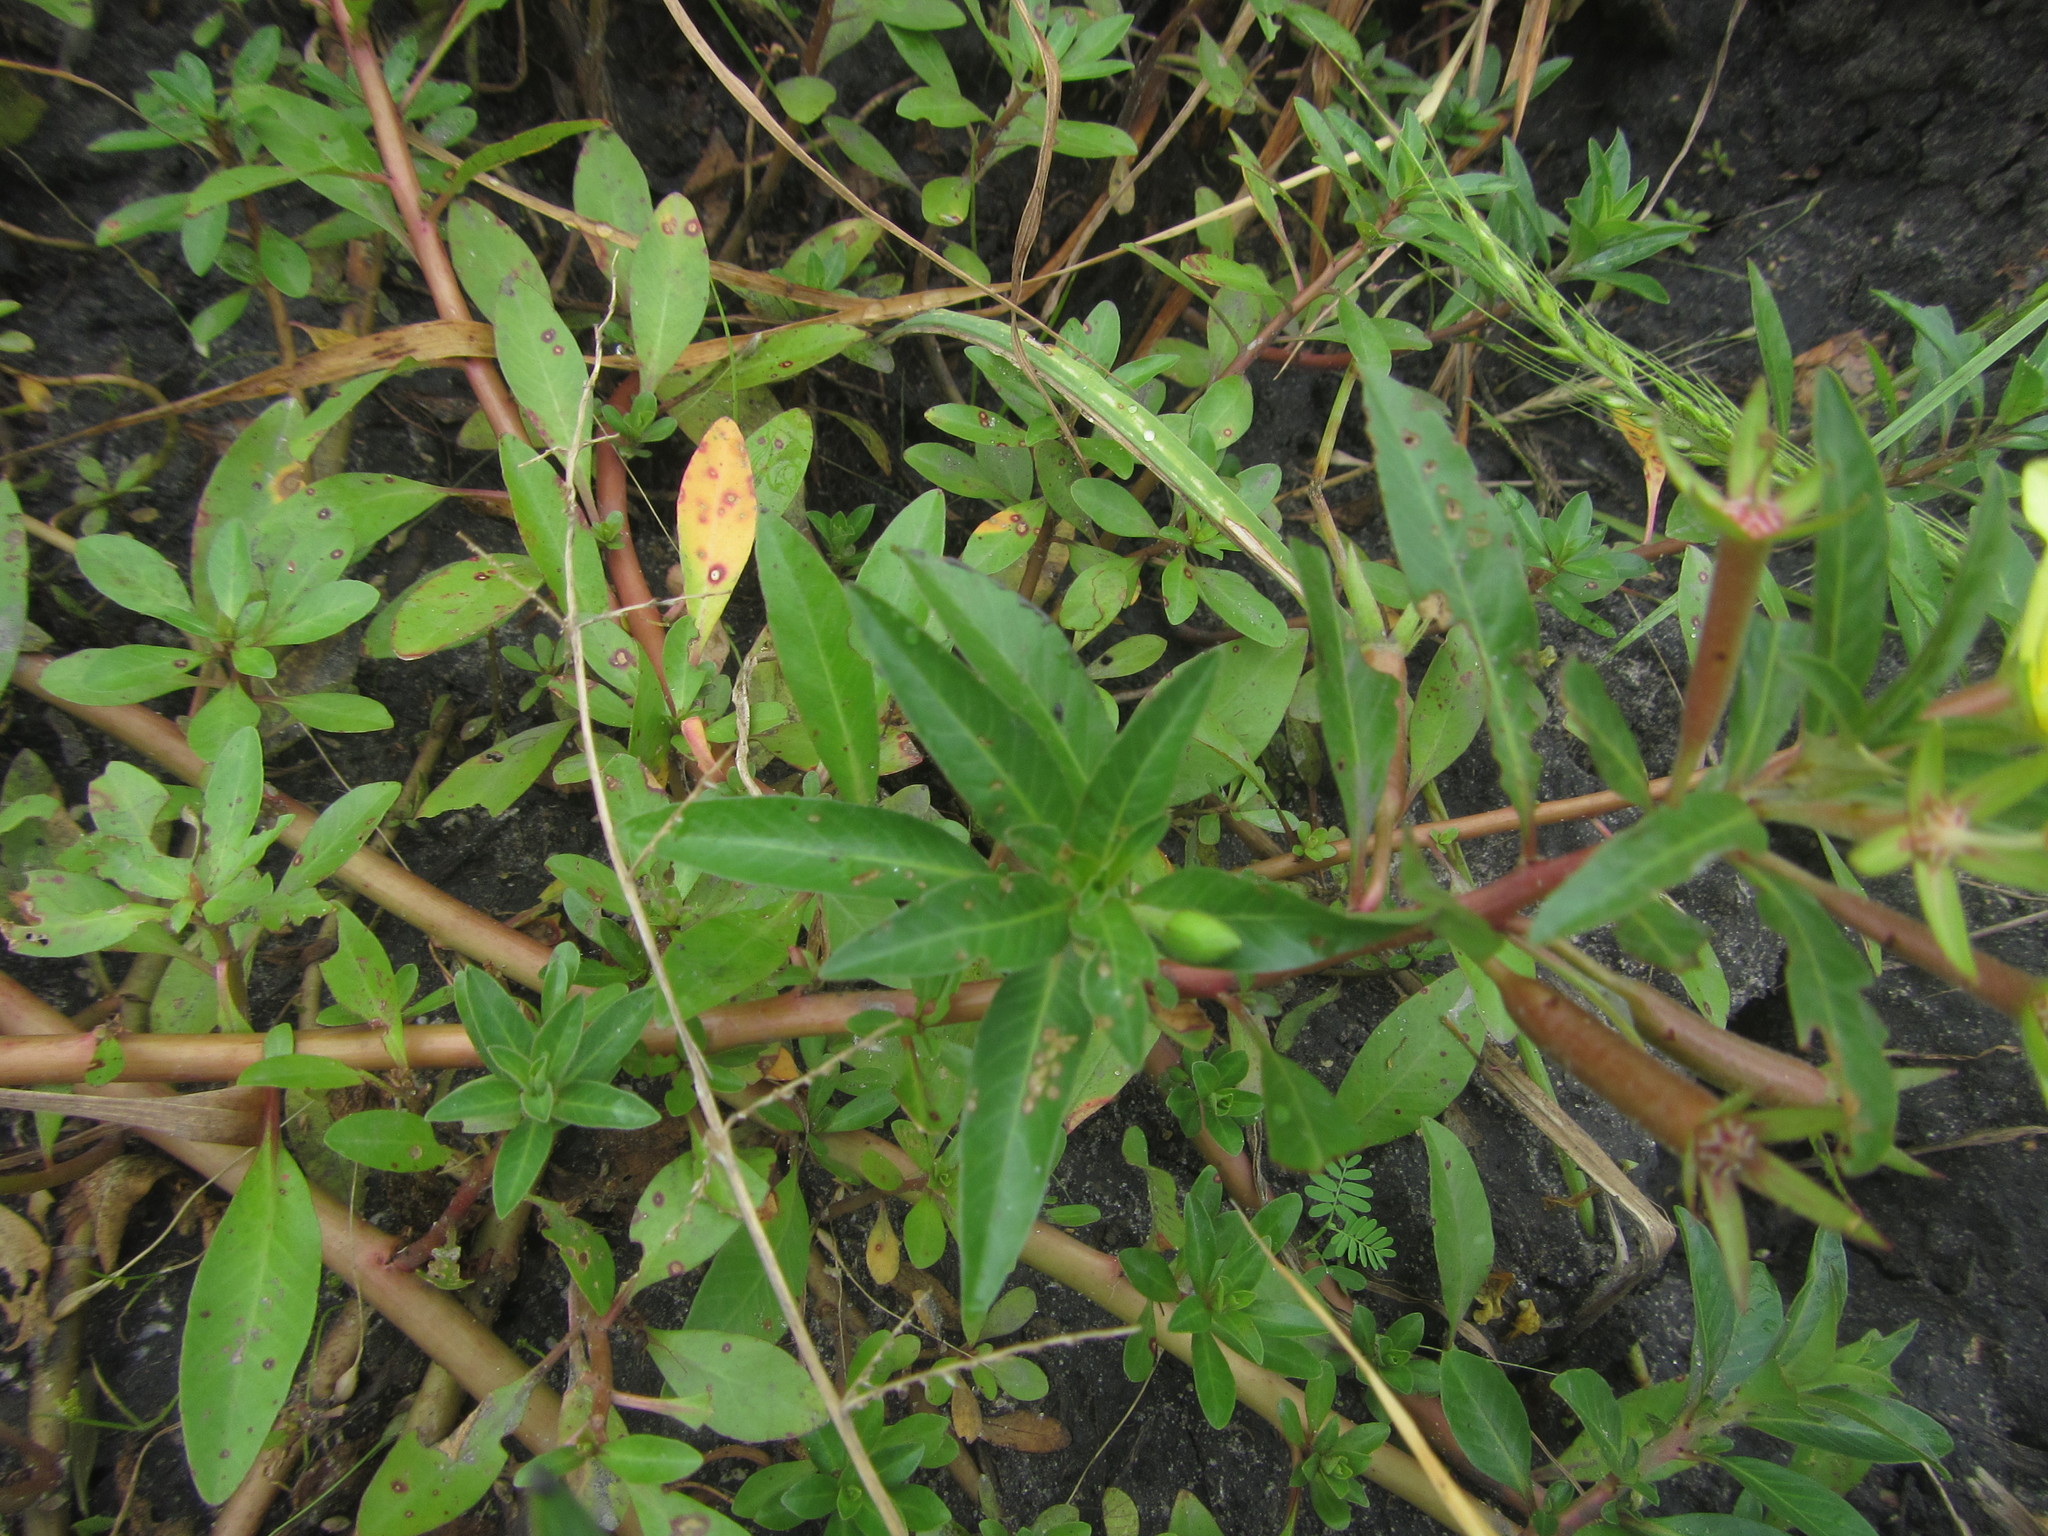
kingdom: Plantae
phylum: Tracheophyta
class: Magnoliopsida
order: Myrtales
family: Onagraceae
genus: Ludwigia
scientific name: Ludwigia adscendens
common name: Creeping water primrose
